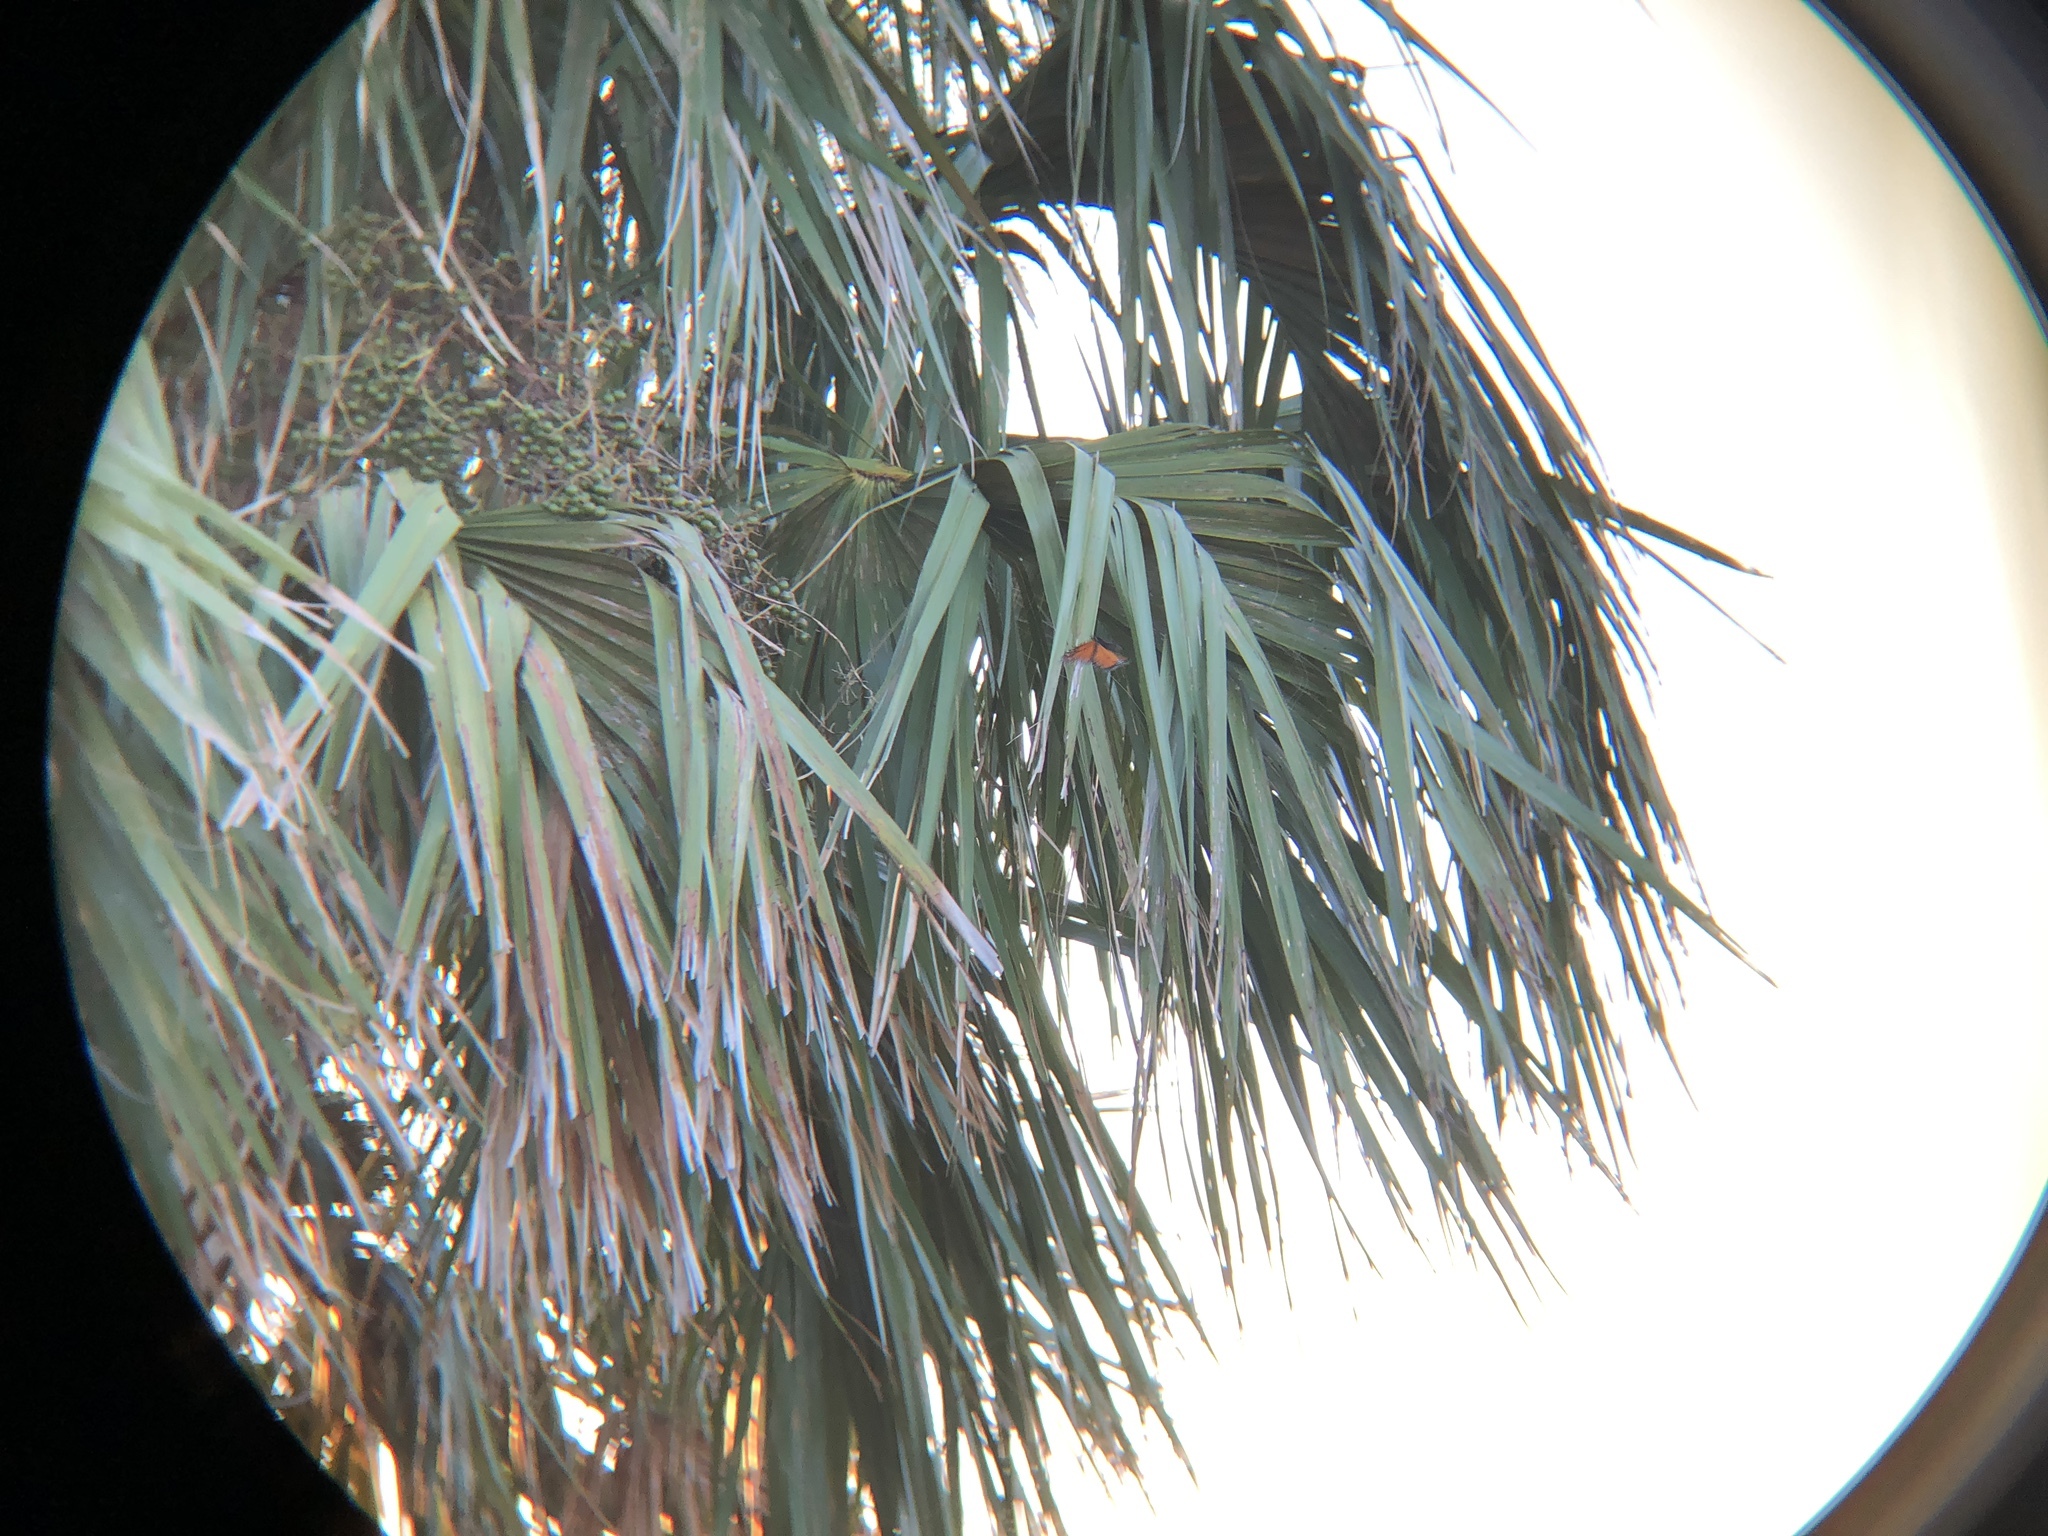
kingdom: Animalia
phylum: Arthropoda
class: Insecta
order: Lepidoptera
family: Nymphalidae
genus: Danaus
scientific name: Danaus plexippus
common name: Monarch
